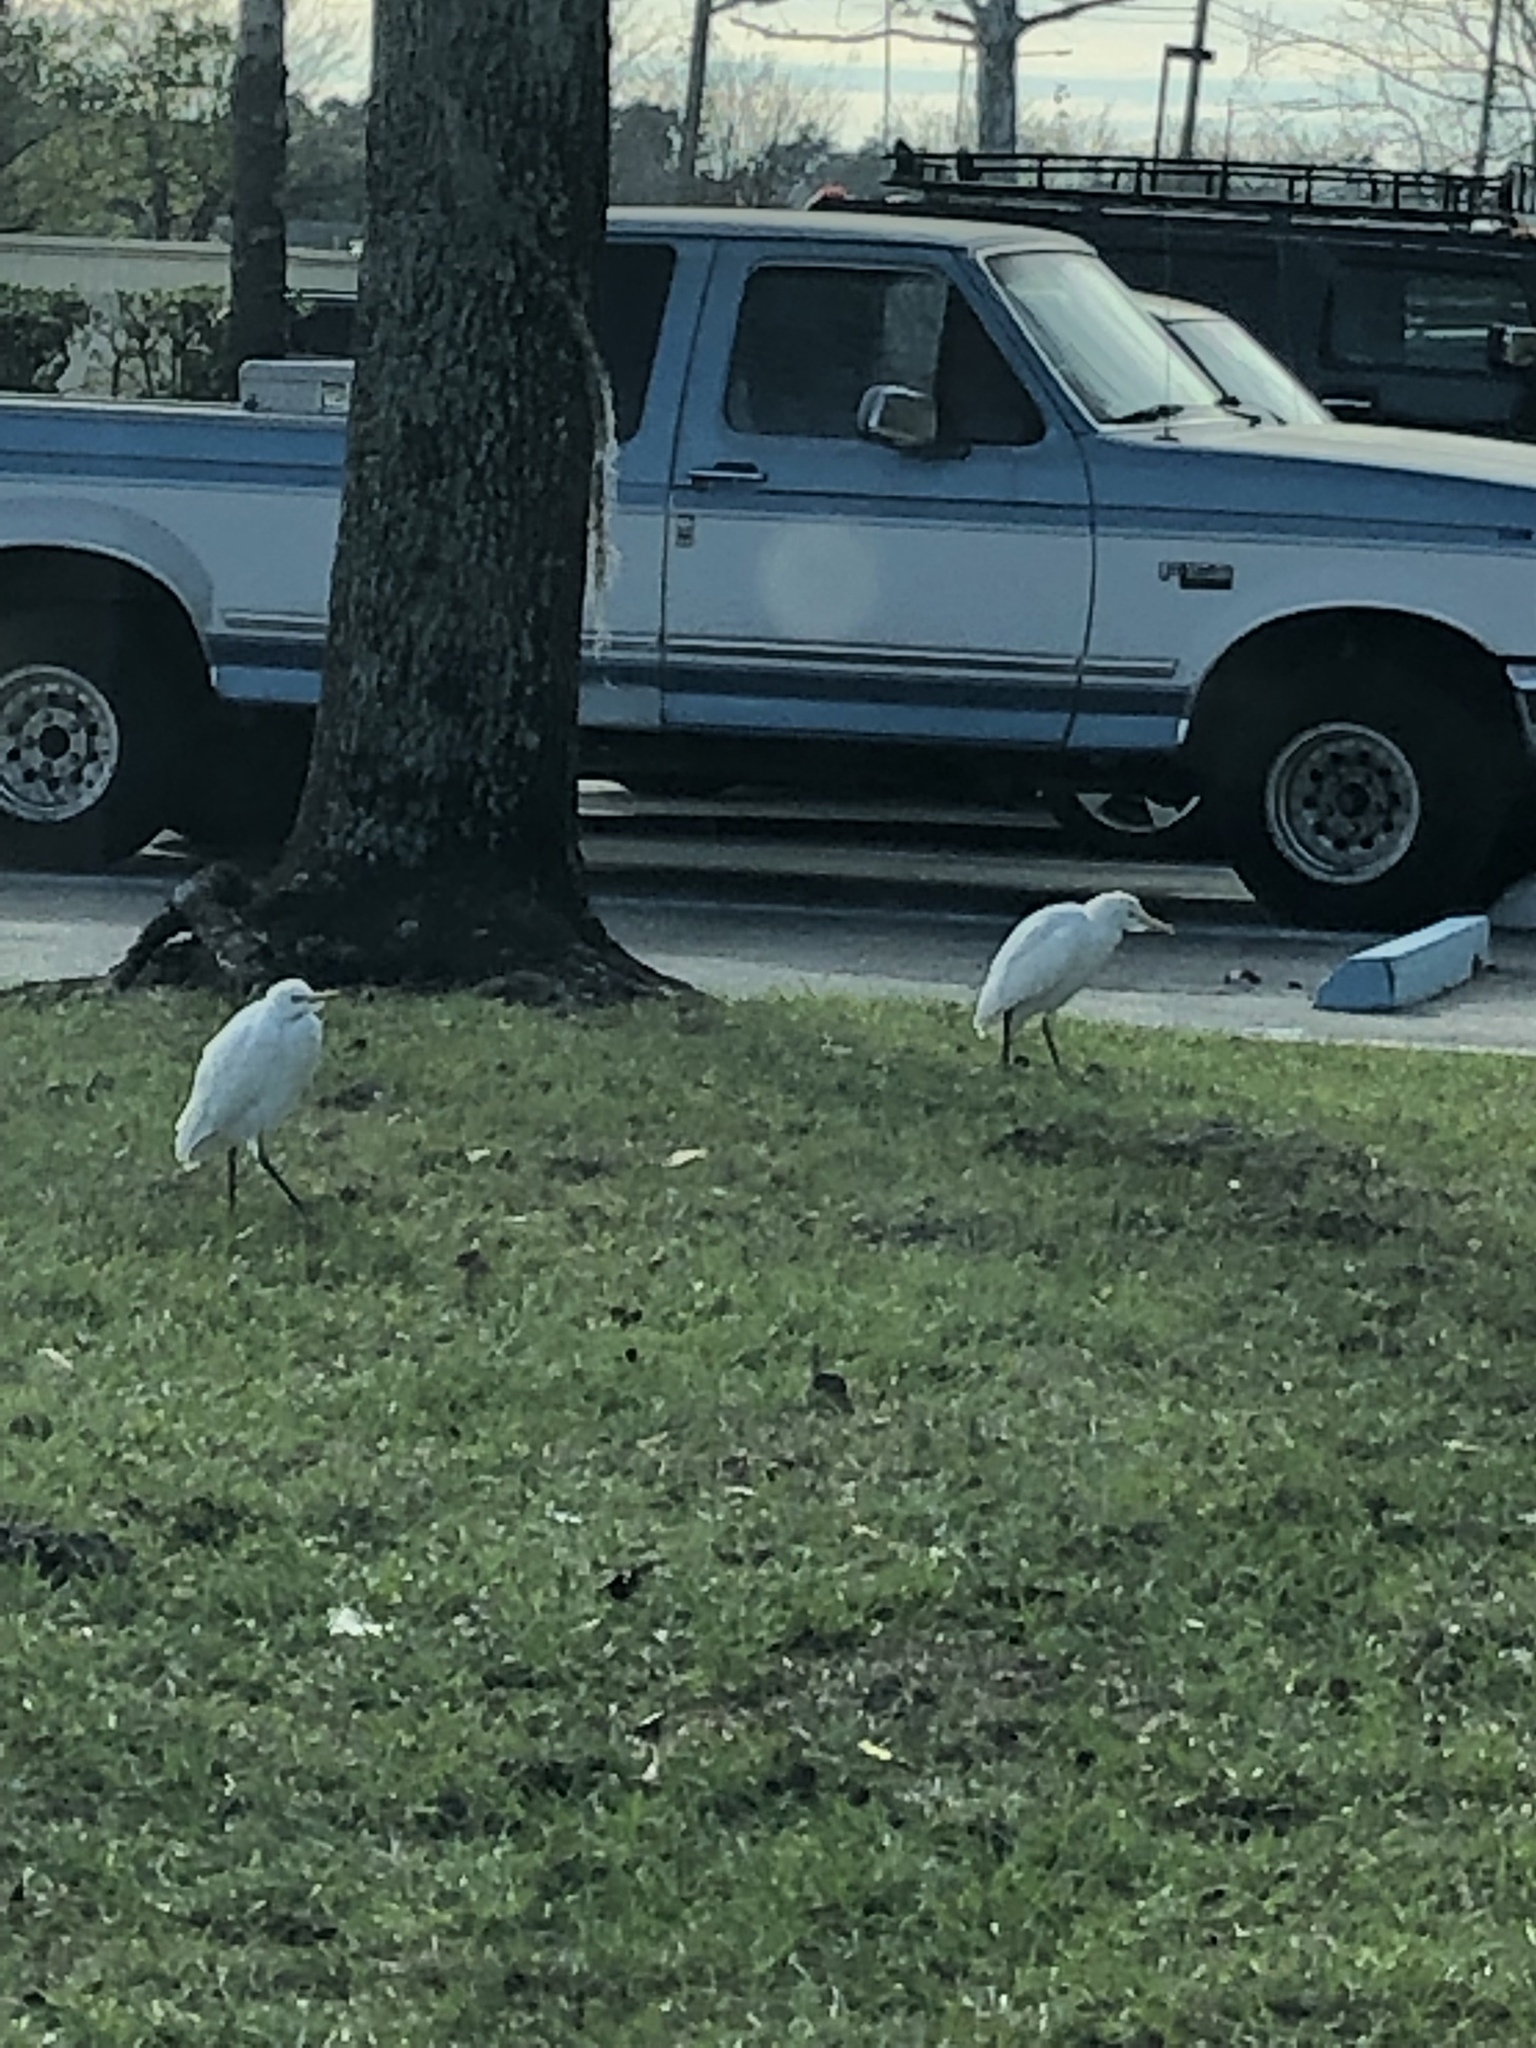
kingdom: Animalia
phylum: Chordata
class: Aves
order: Pelecaniformes
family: Ardeidae
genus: Bubulcus
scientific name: Bubulcus ibis
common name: Cattle egret
